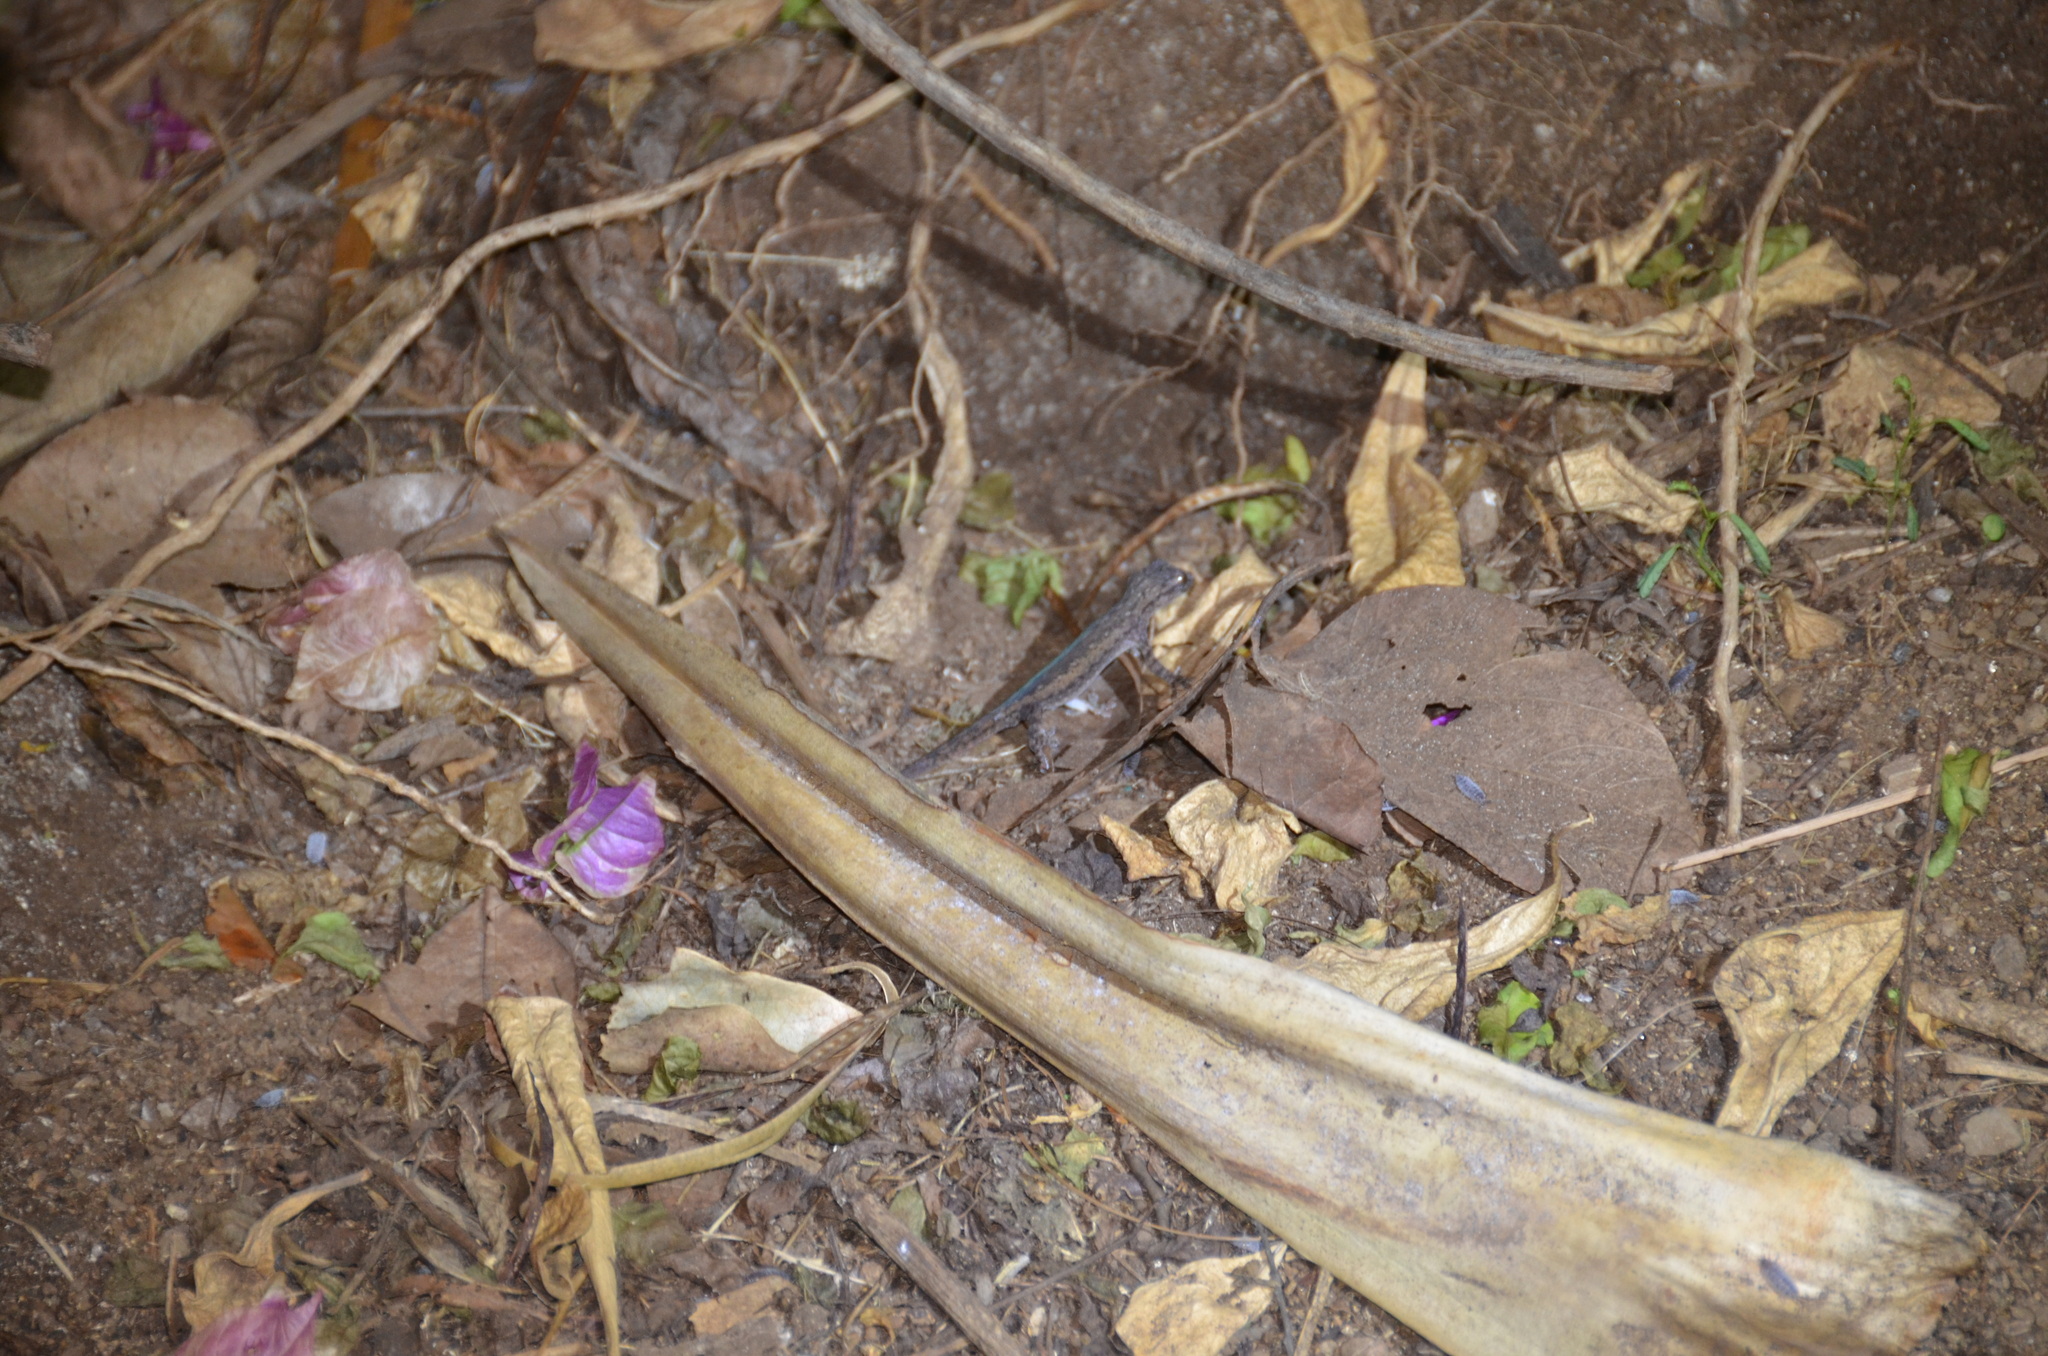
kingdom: Animalia
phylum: Chordata
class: Squamata
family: Gekkonidae
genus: Hemidactylus
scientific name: Hemidactylus frenatus
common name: Common house gecko
